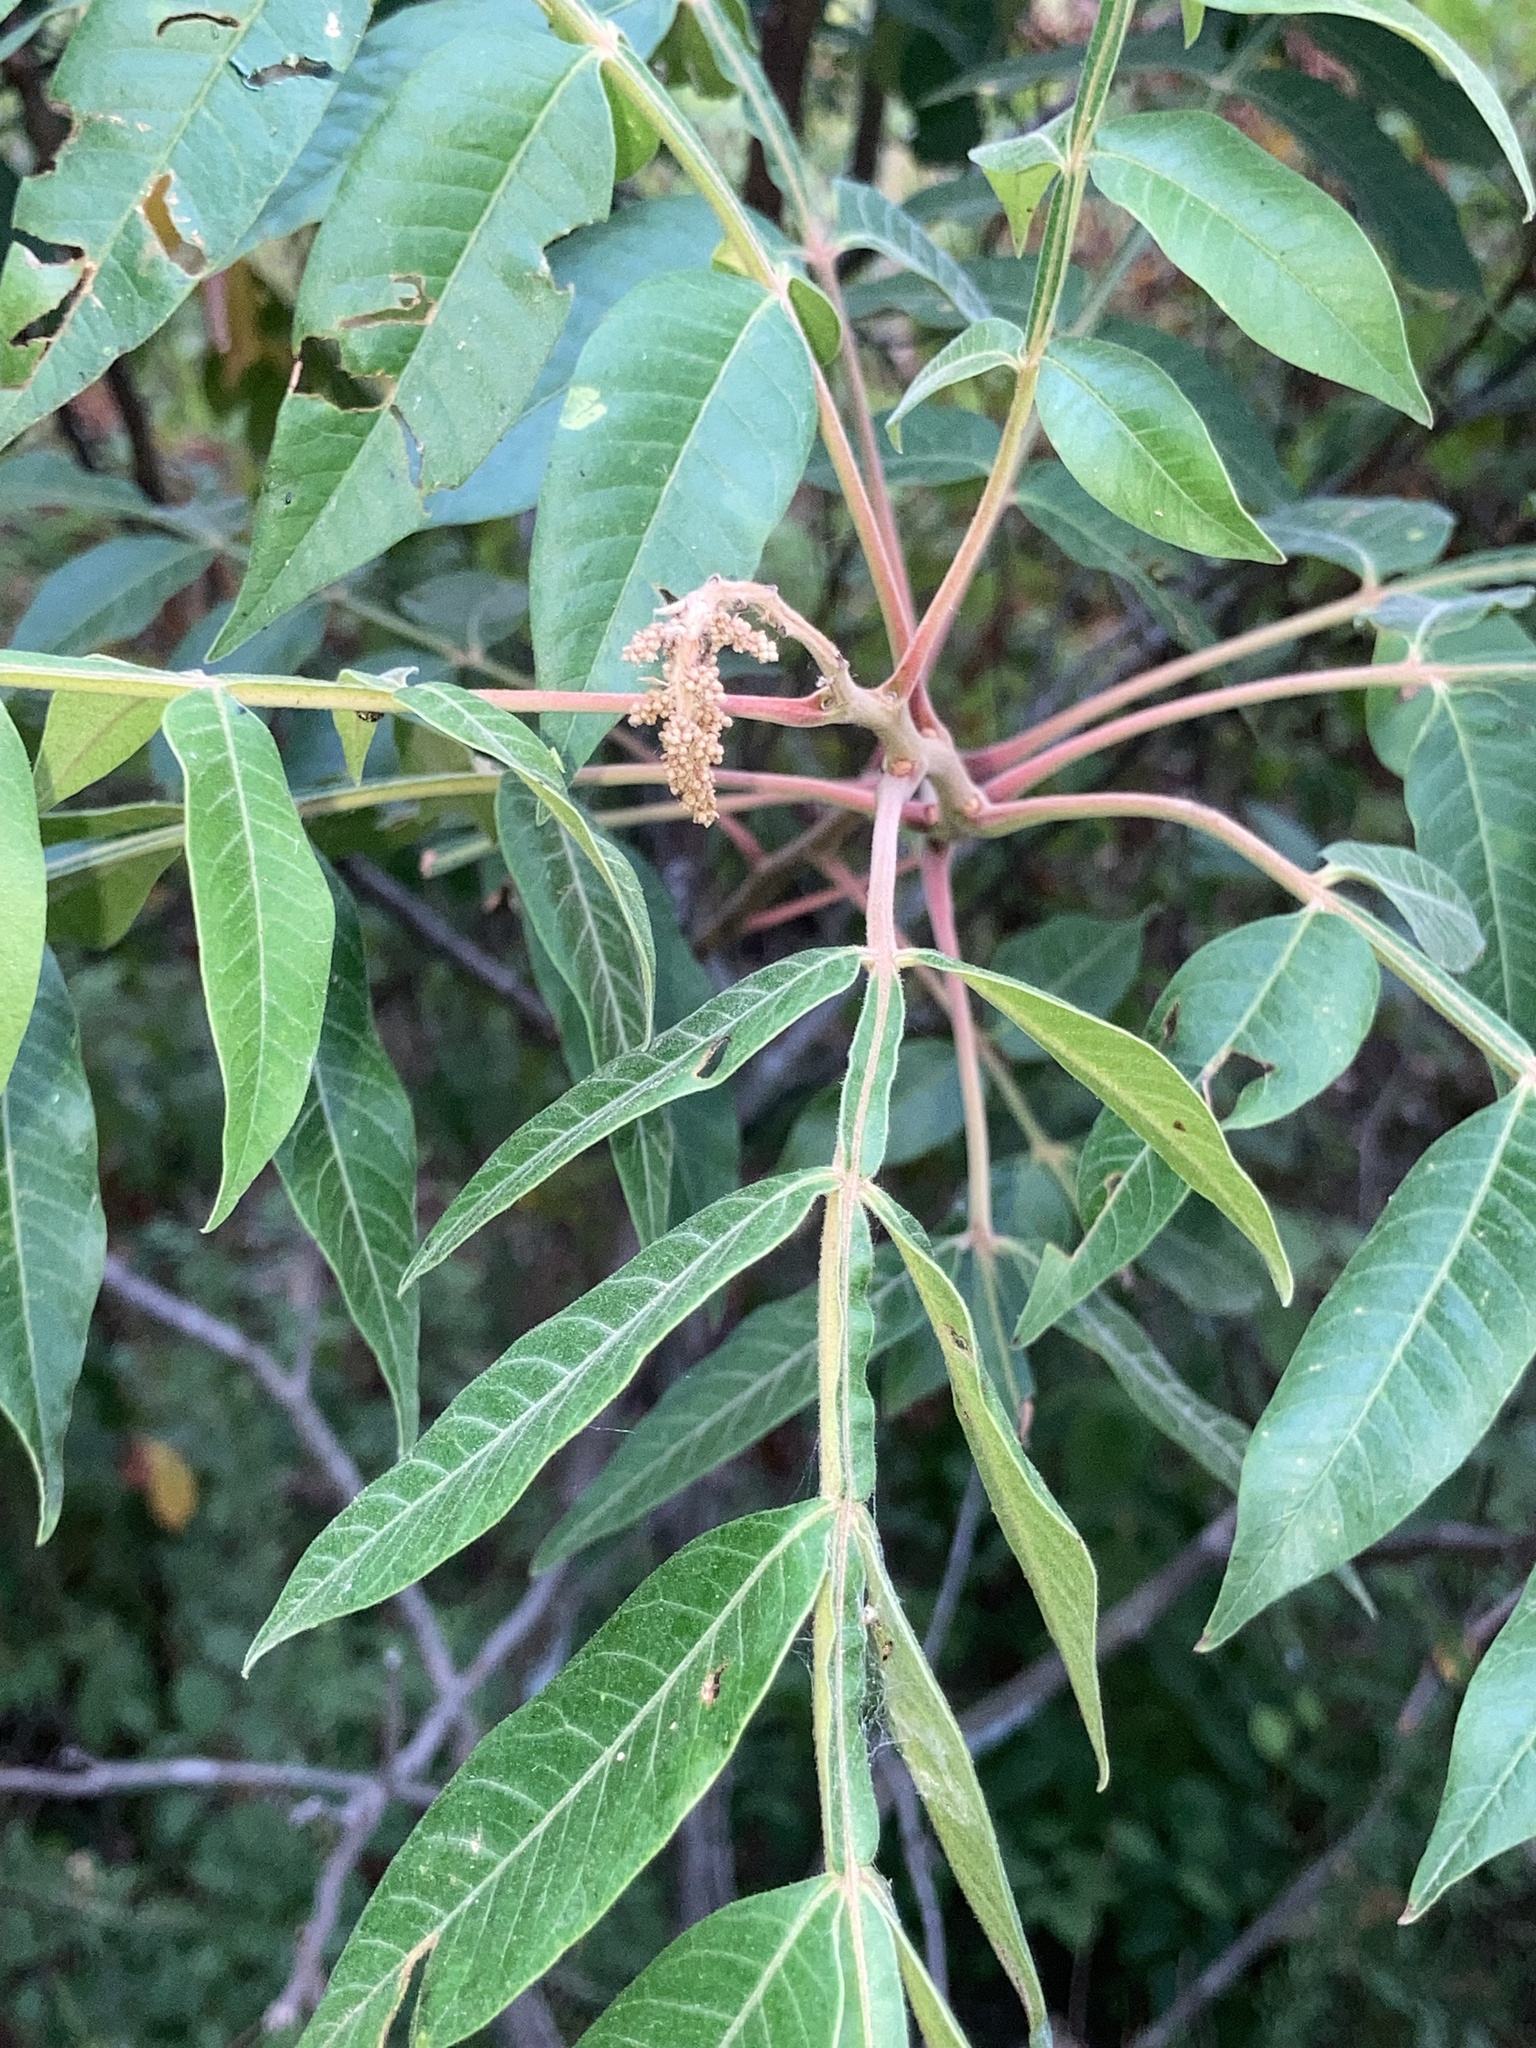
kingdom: Plantae
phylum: Tracheophyta
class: Magnoliopsida
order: Sapindales
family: Anacardiaceae
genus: Rhus
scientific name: Rhus copallina
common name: Shining sumac
